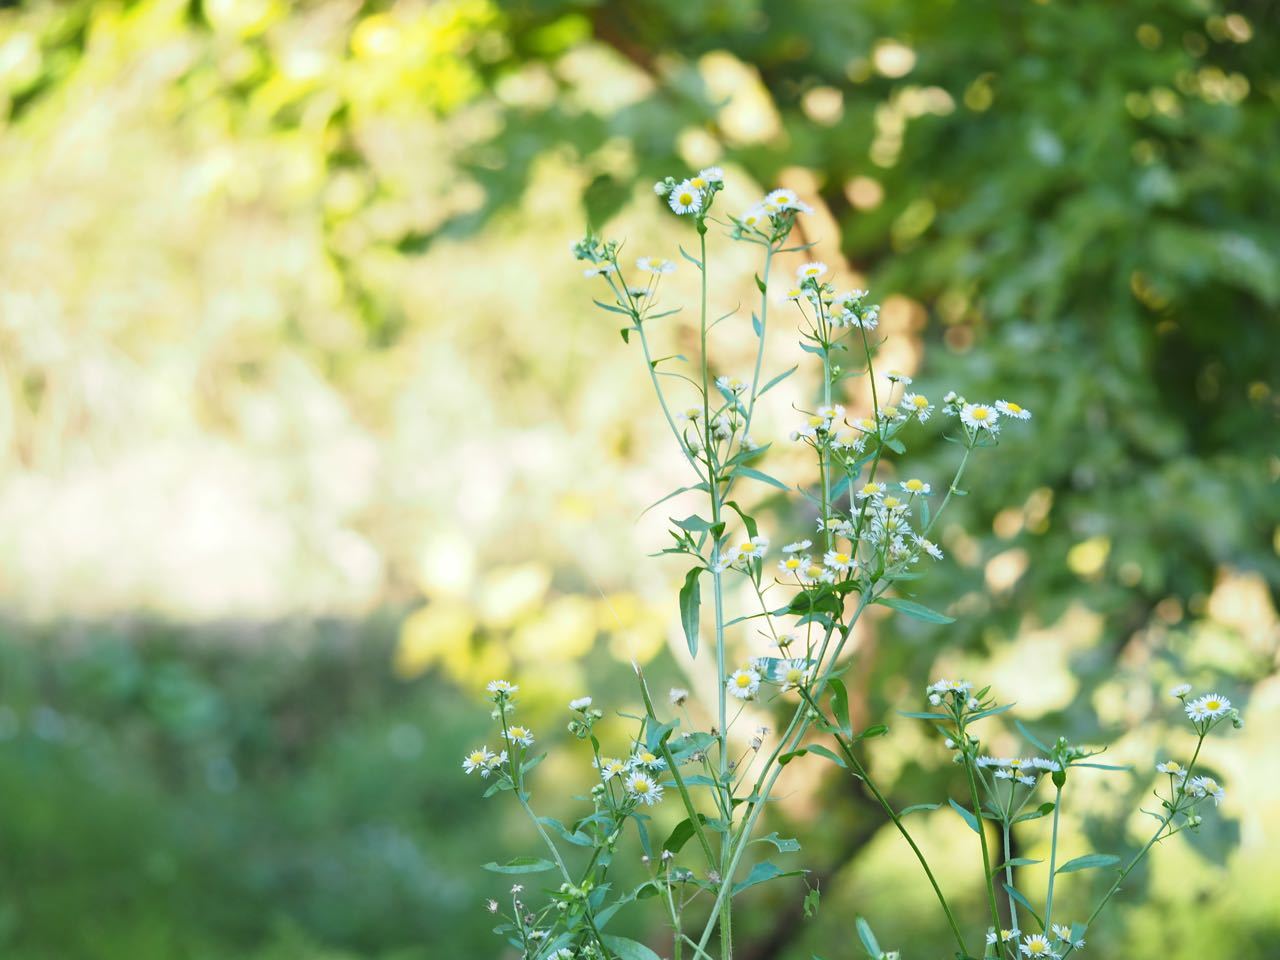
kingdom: Plantae
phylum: Tracheophyta
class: Magnoliopsida
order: Asterales
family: Asteraceae
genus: Erigeron
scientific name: Erigeron annuus
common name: Tall fleabane
